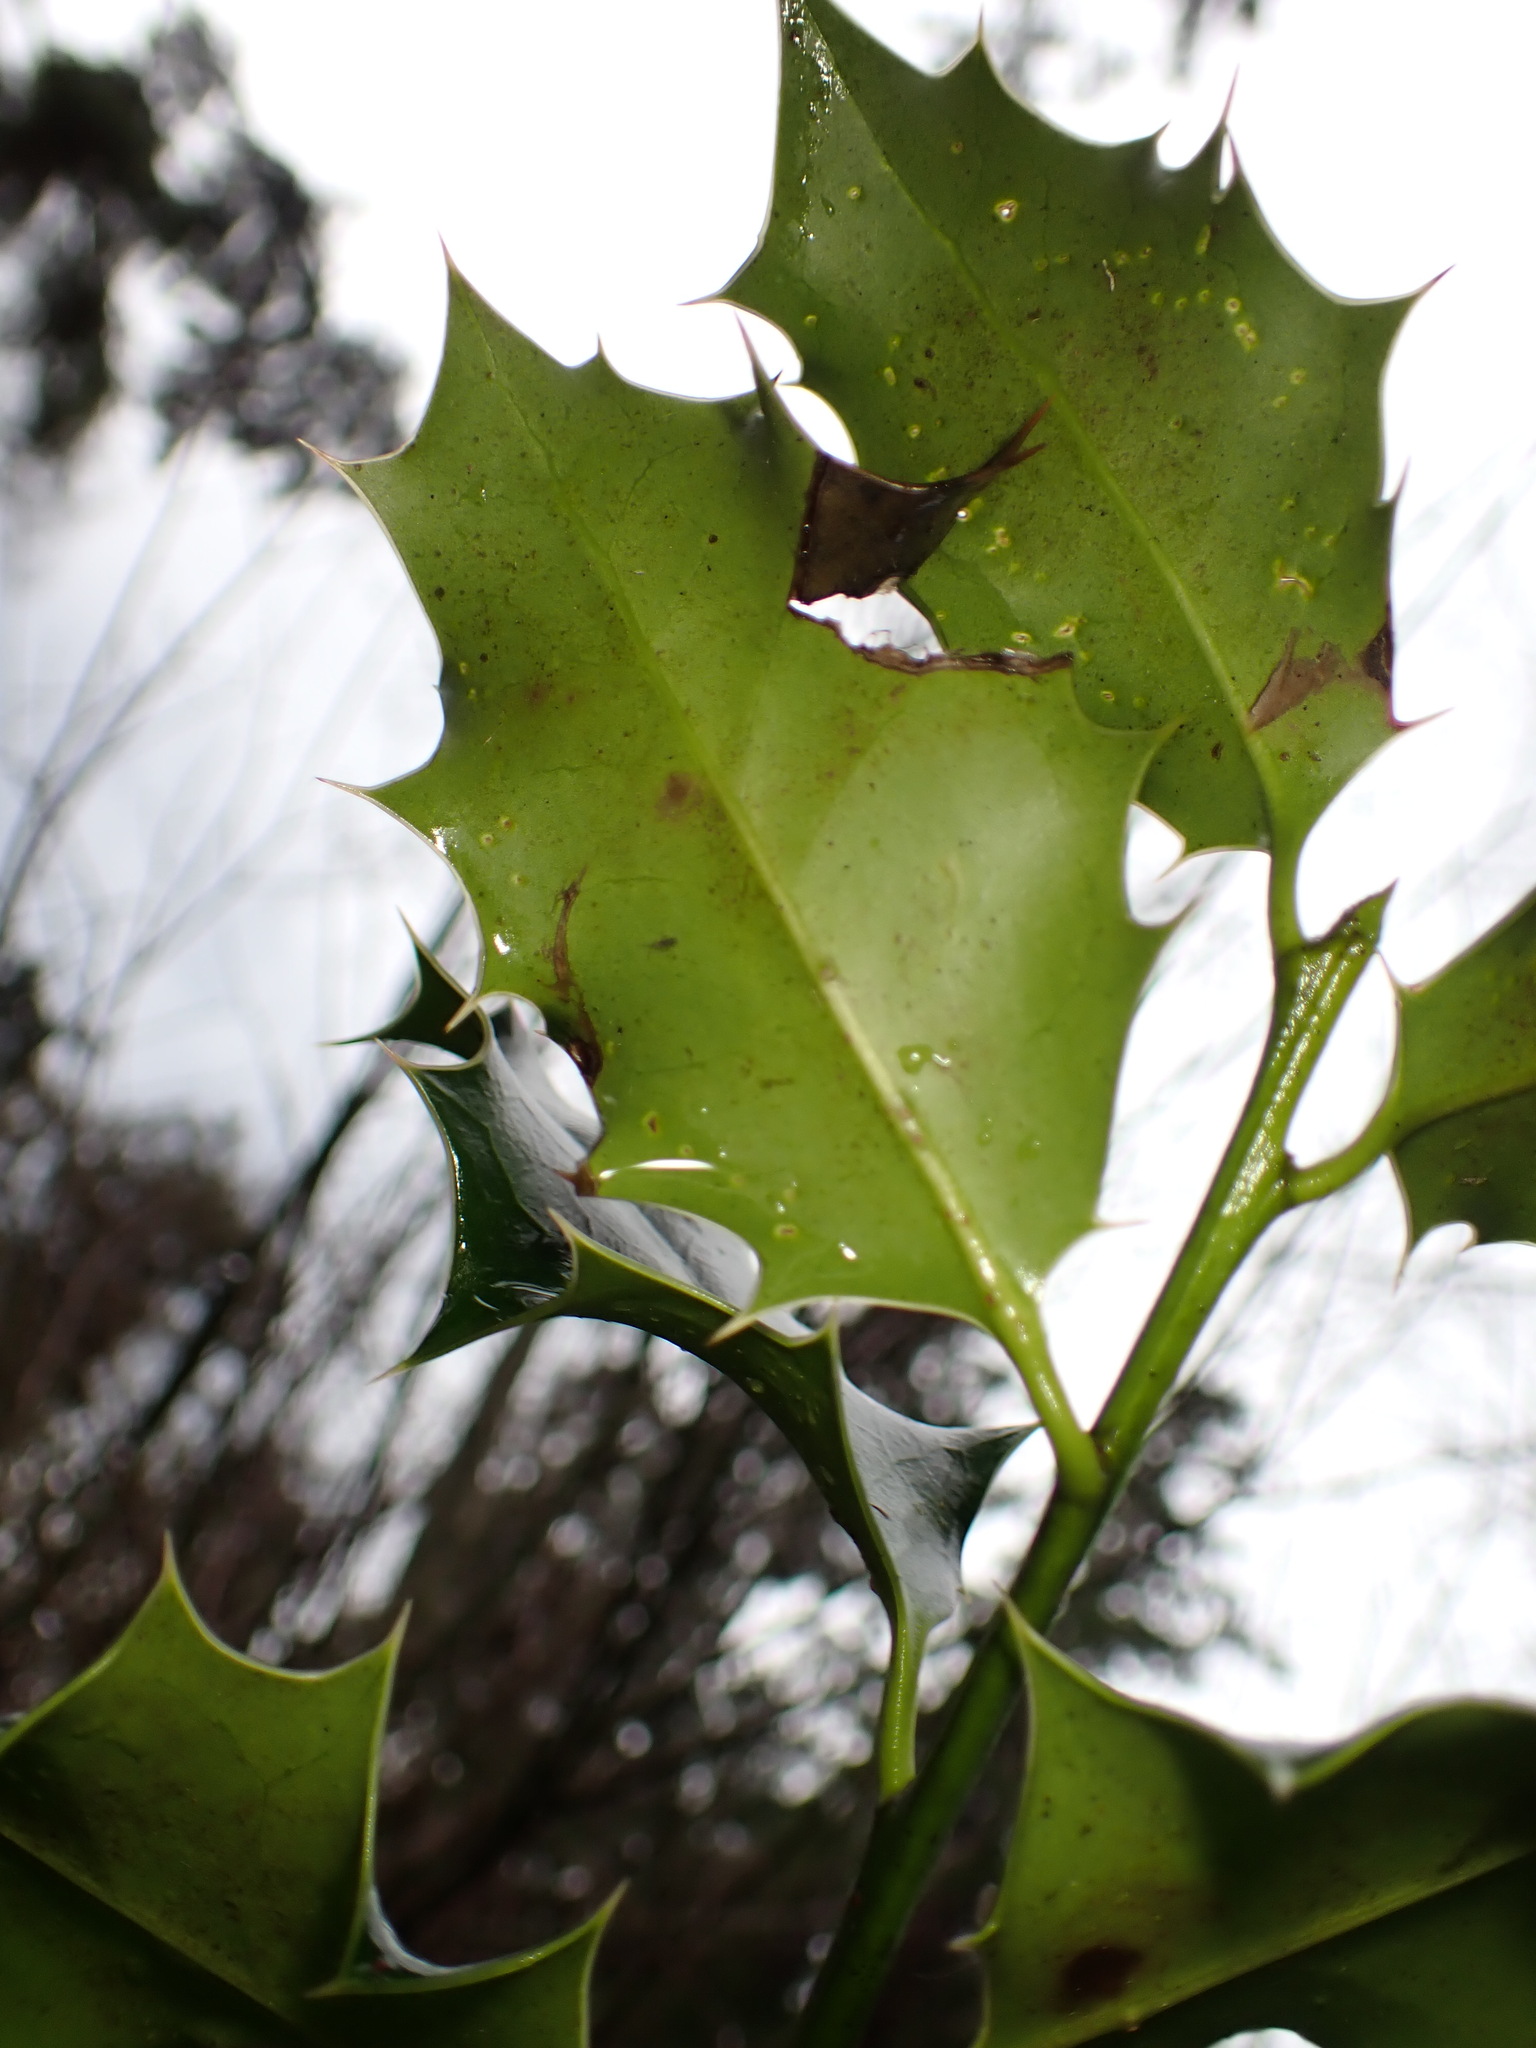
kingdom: Plantae
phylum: Tracheophyta
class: Magnoliopsida
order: Aquifoliales
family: Aquifoliaceae
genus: Ilex
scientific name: Ilex aquifolium
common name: English holly
